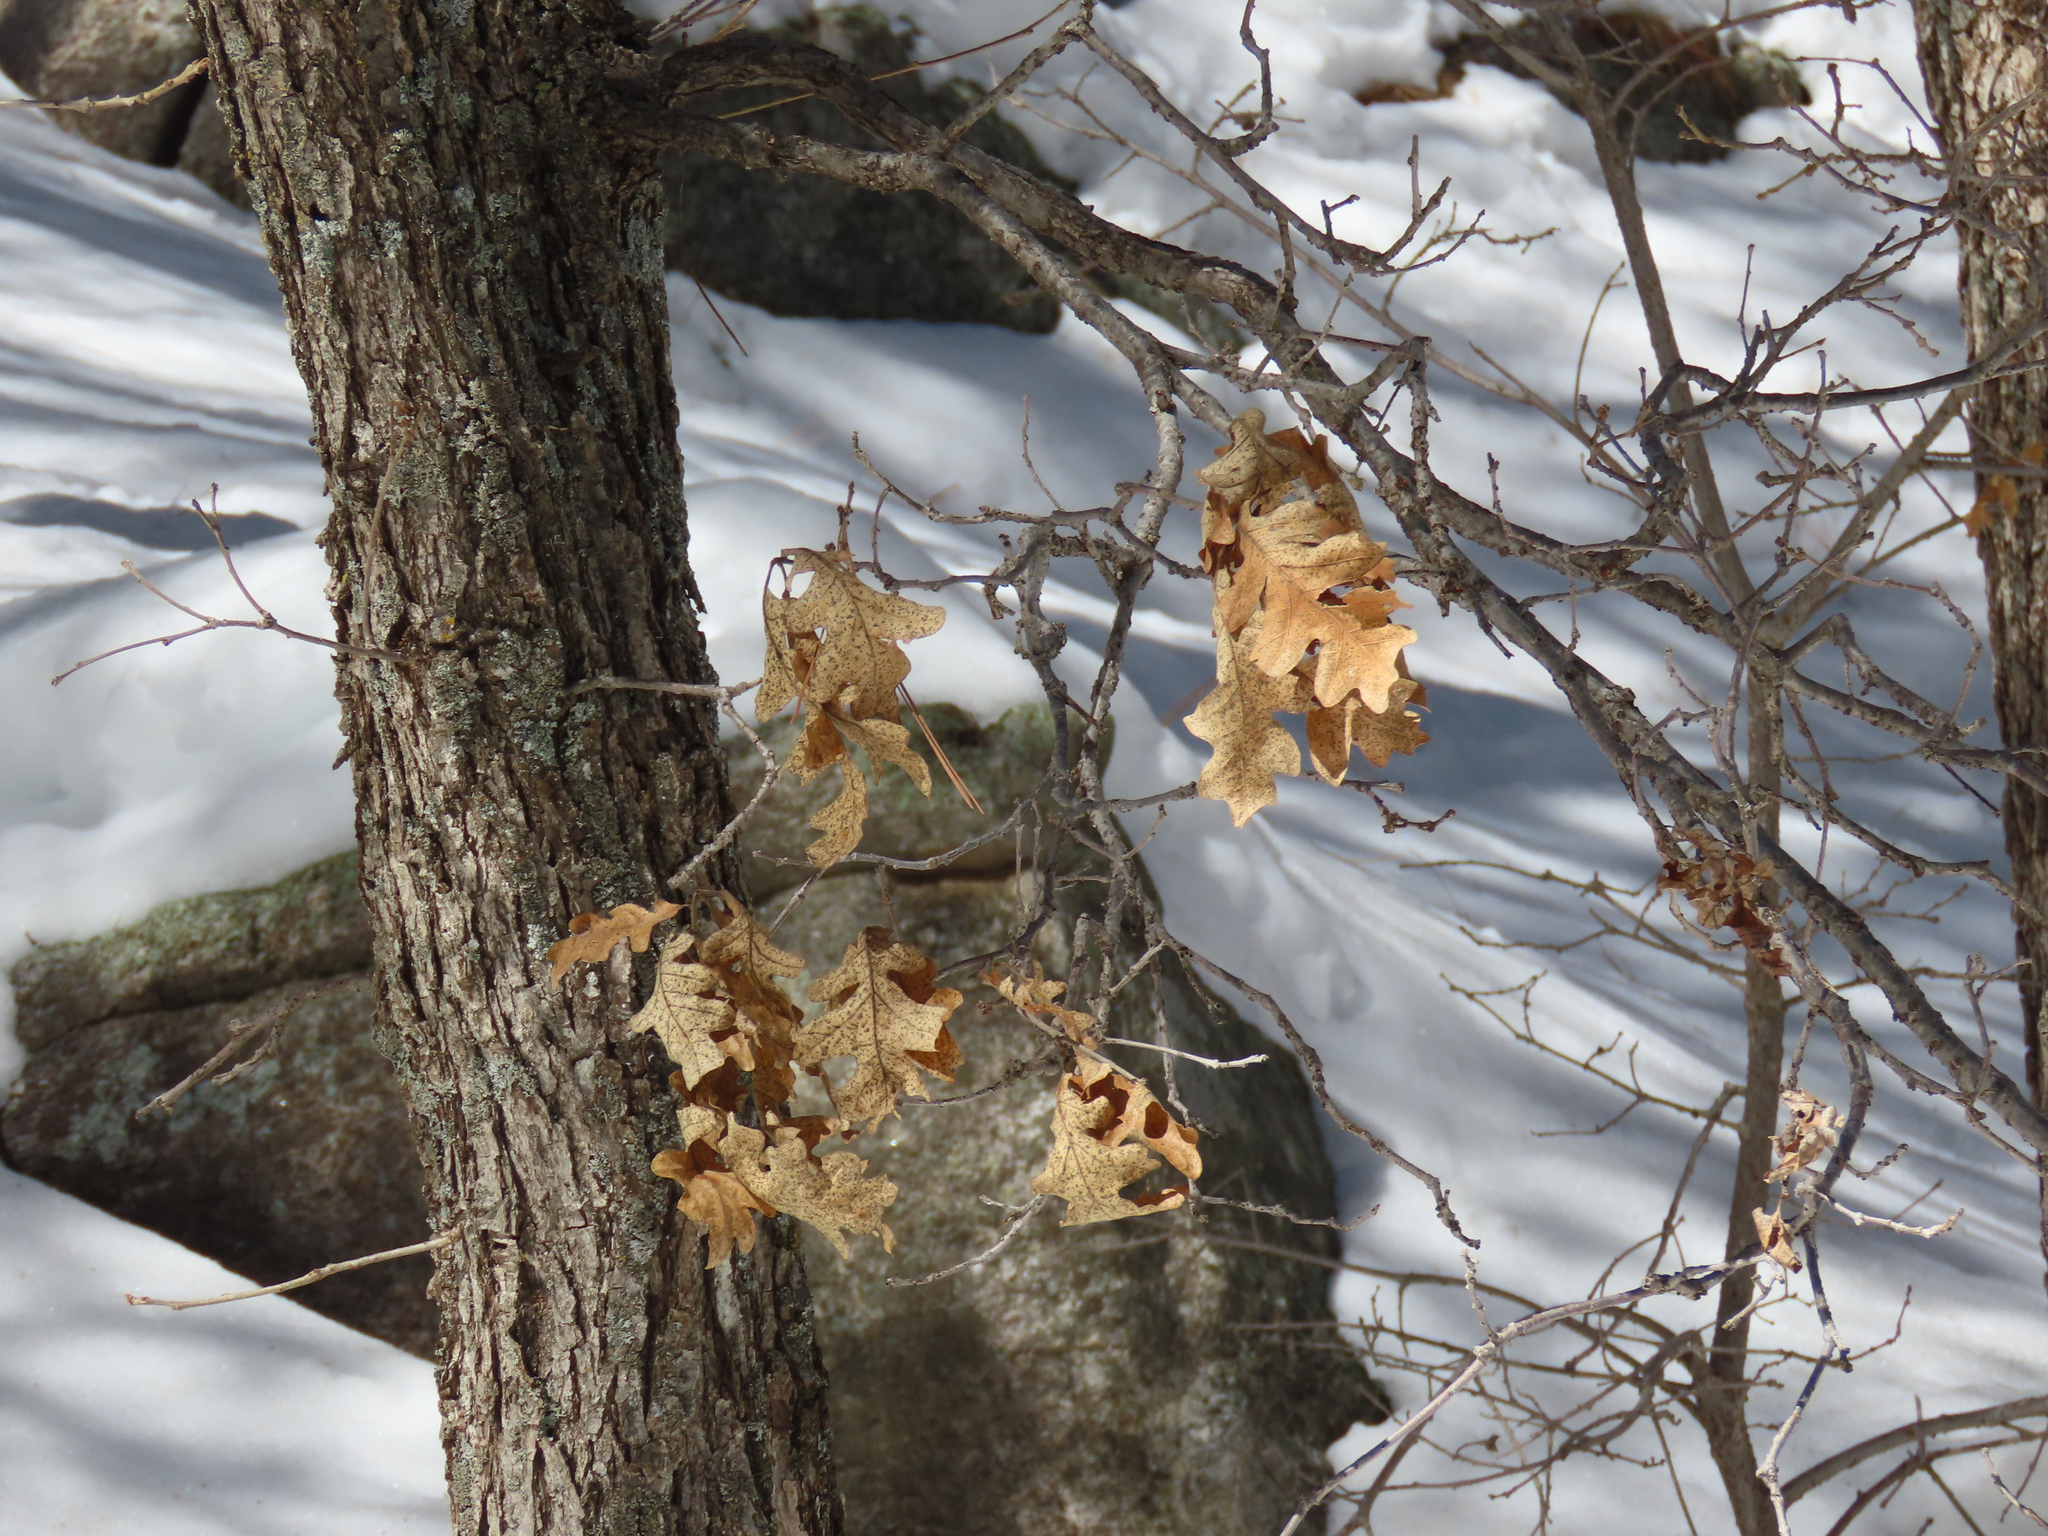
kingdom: Plantae
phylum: Tracheophyta
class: Magnoliopsida
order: Fagales
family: Fagaceae
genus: Quercus
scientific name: Quercus gambelii
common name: Gambel oak
